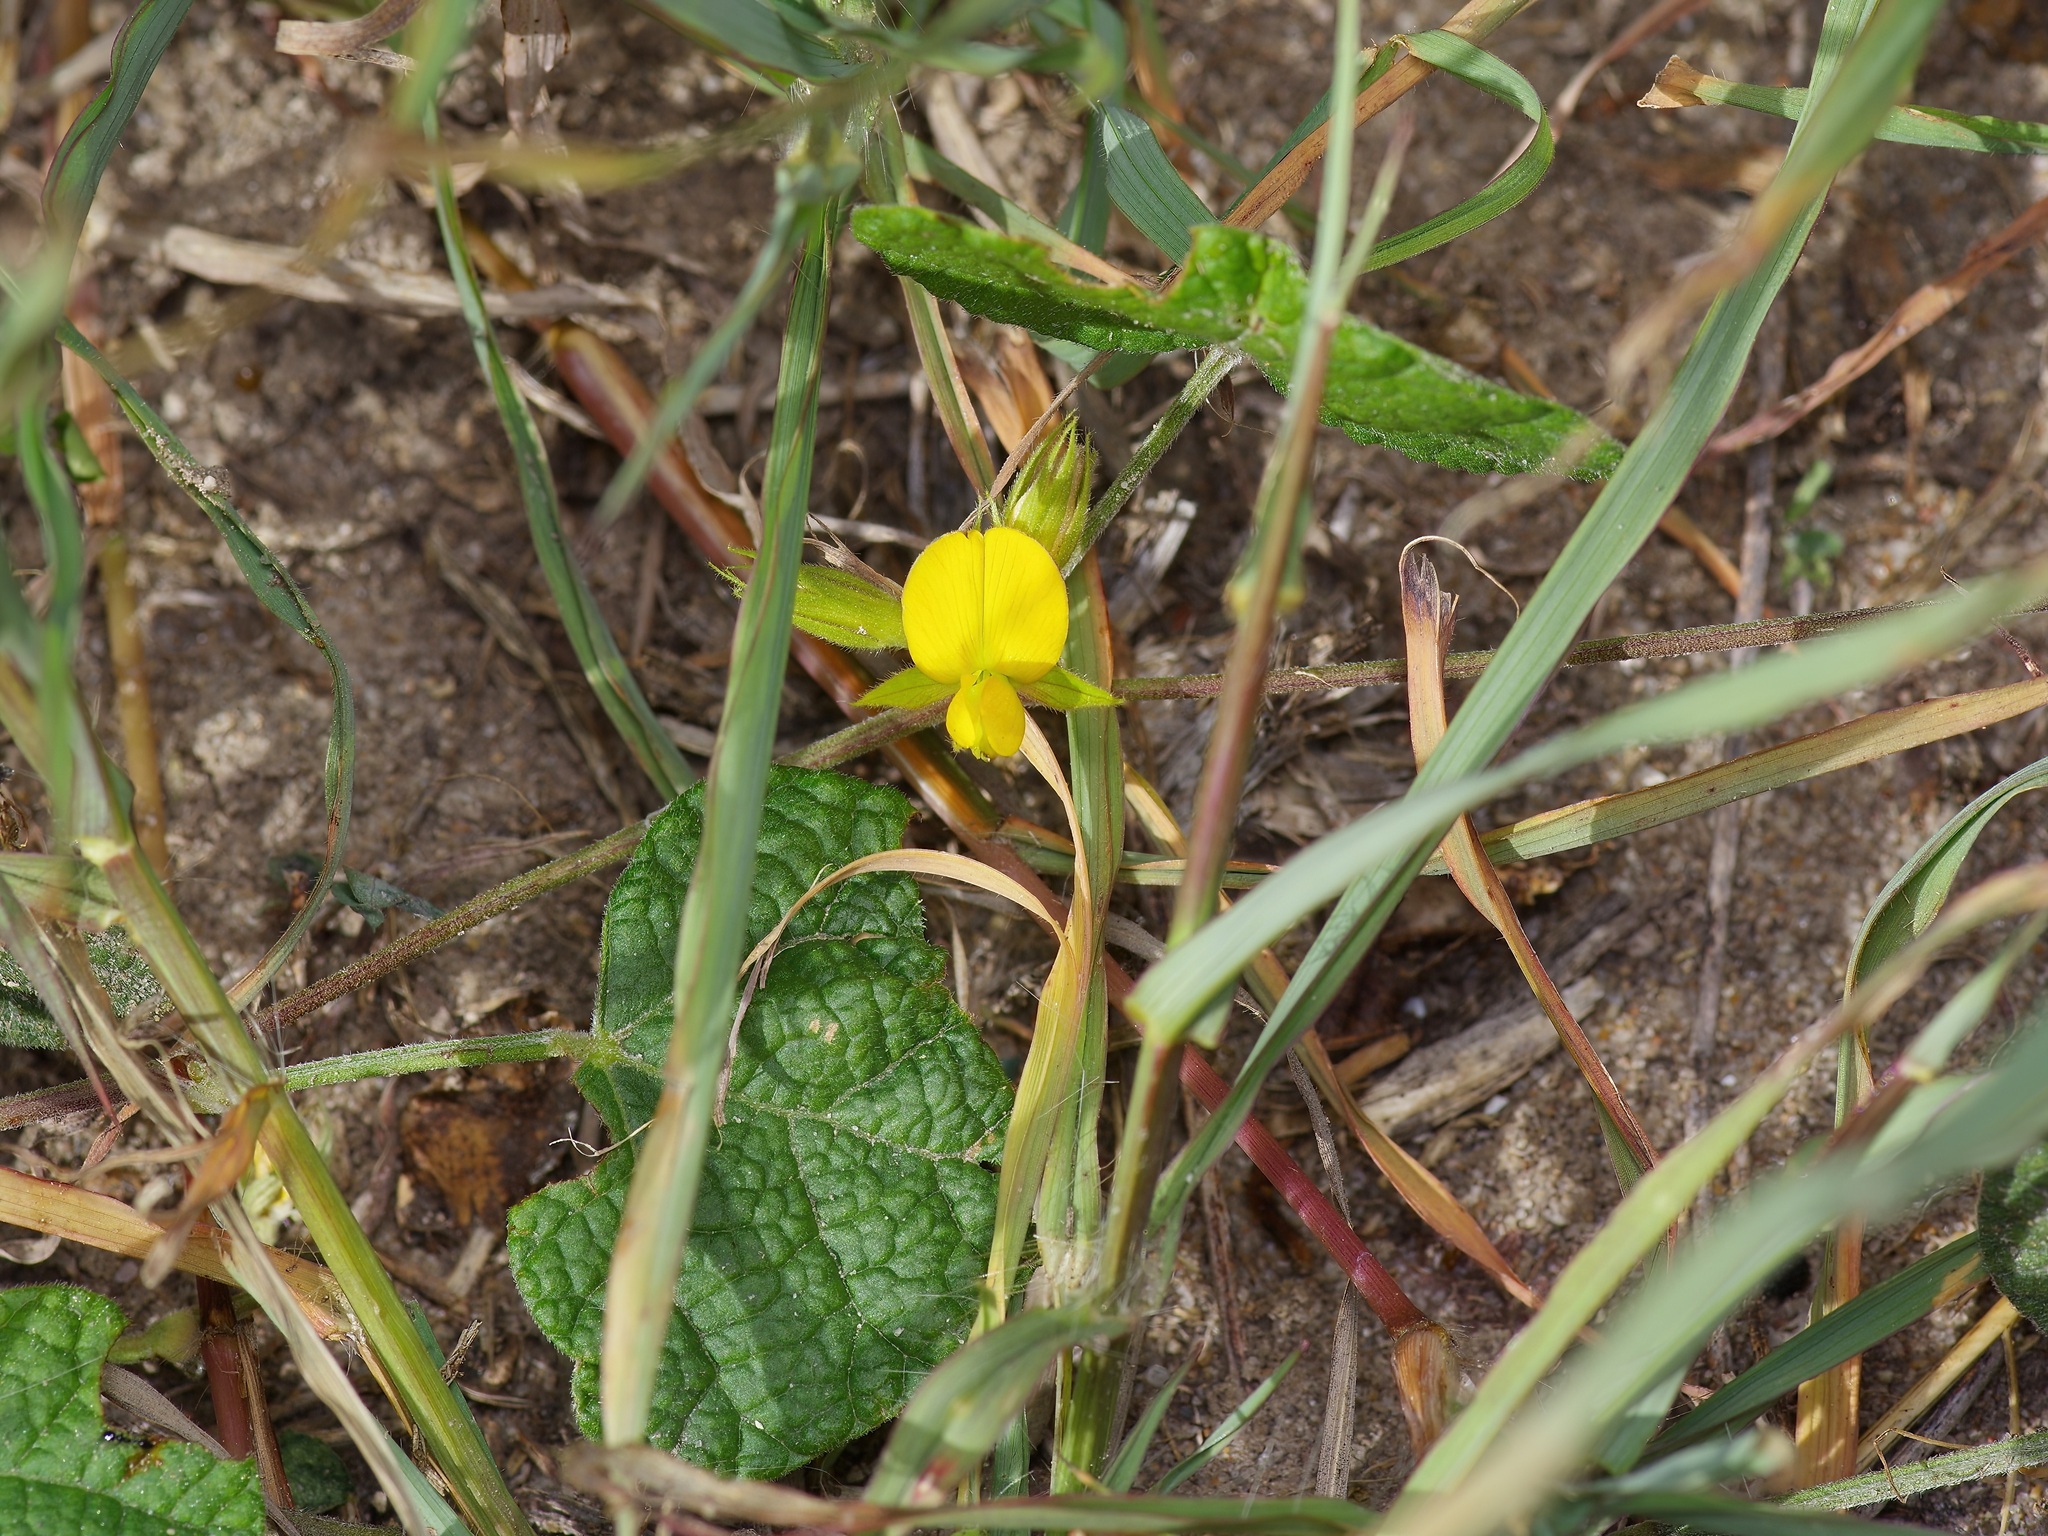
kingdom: Plantae
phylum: Tracheophyta
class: Magnoliopsida
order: Fabales
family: Fabaceae
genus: Rhynchosia
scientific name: Rhynchosia americana
